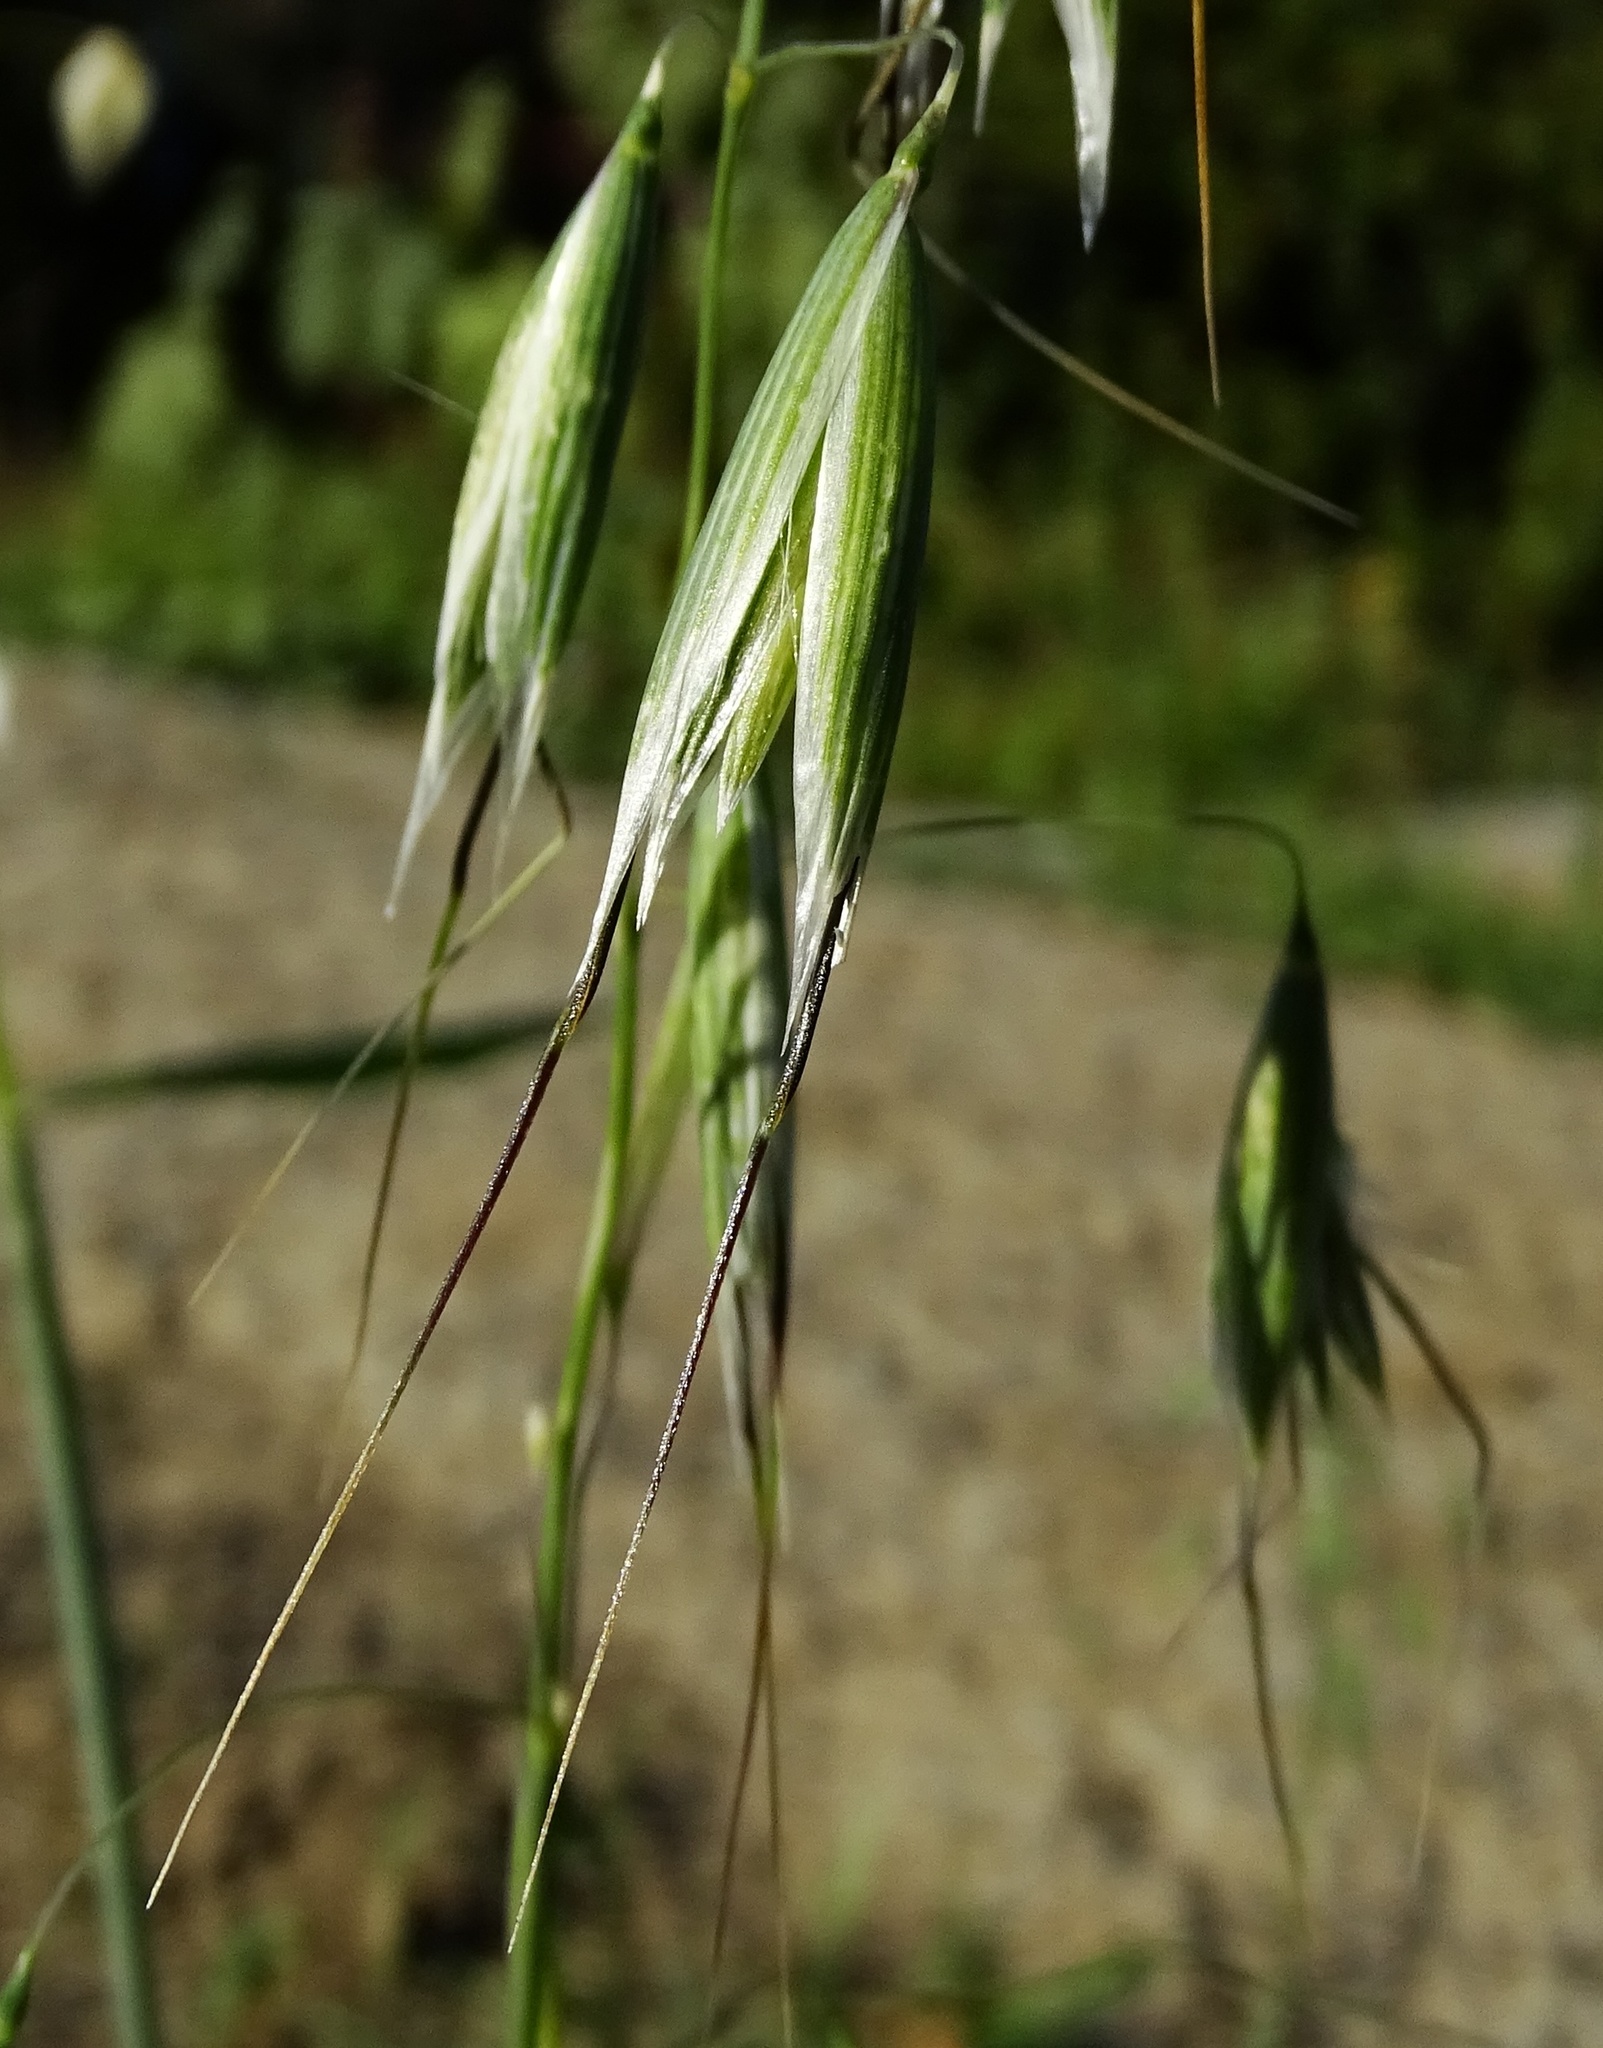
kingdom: Plantae
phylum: Tracheophyta
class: Liliopsida
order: Poales
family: Poaceae
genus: Avena
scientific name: Avena fatua
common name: Wild oat
